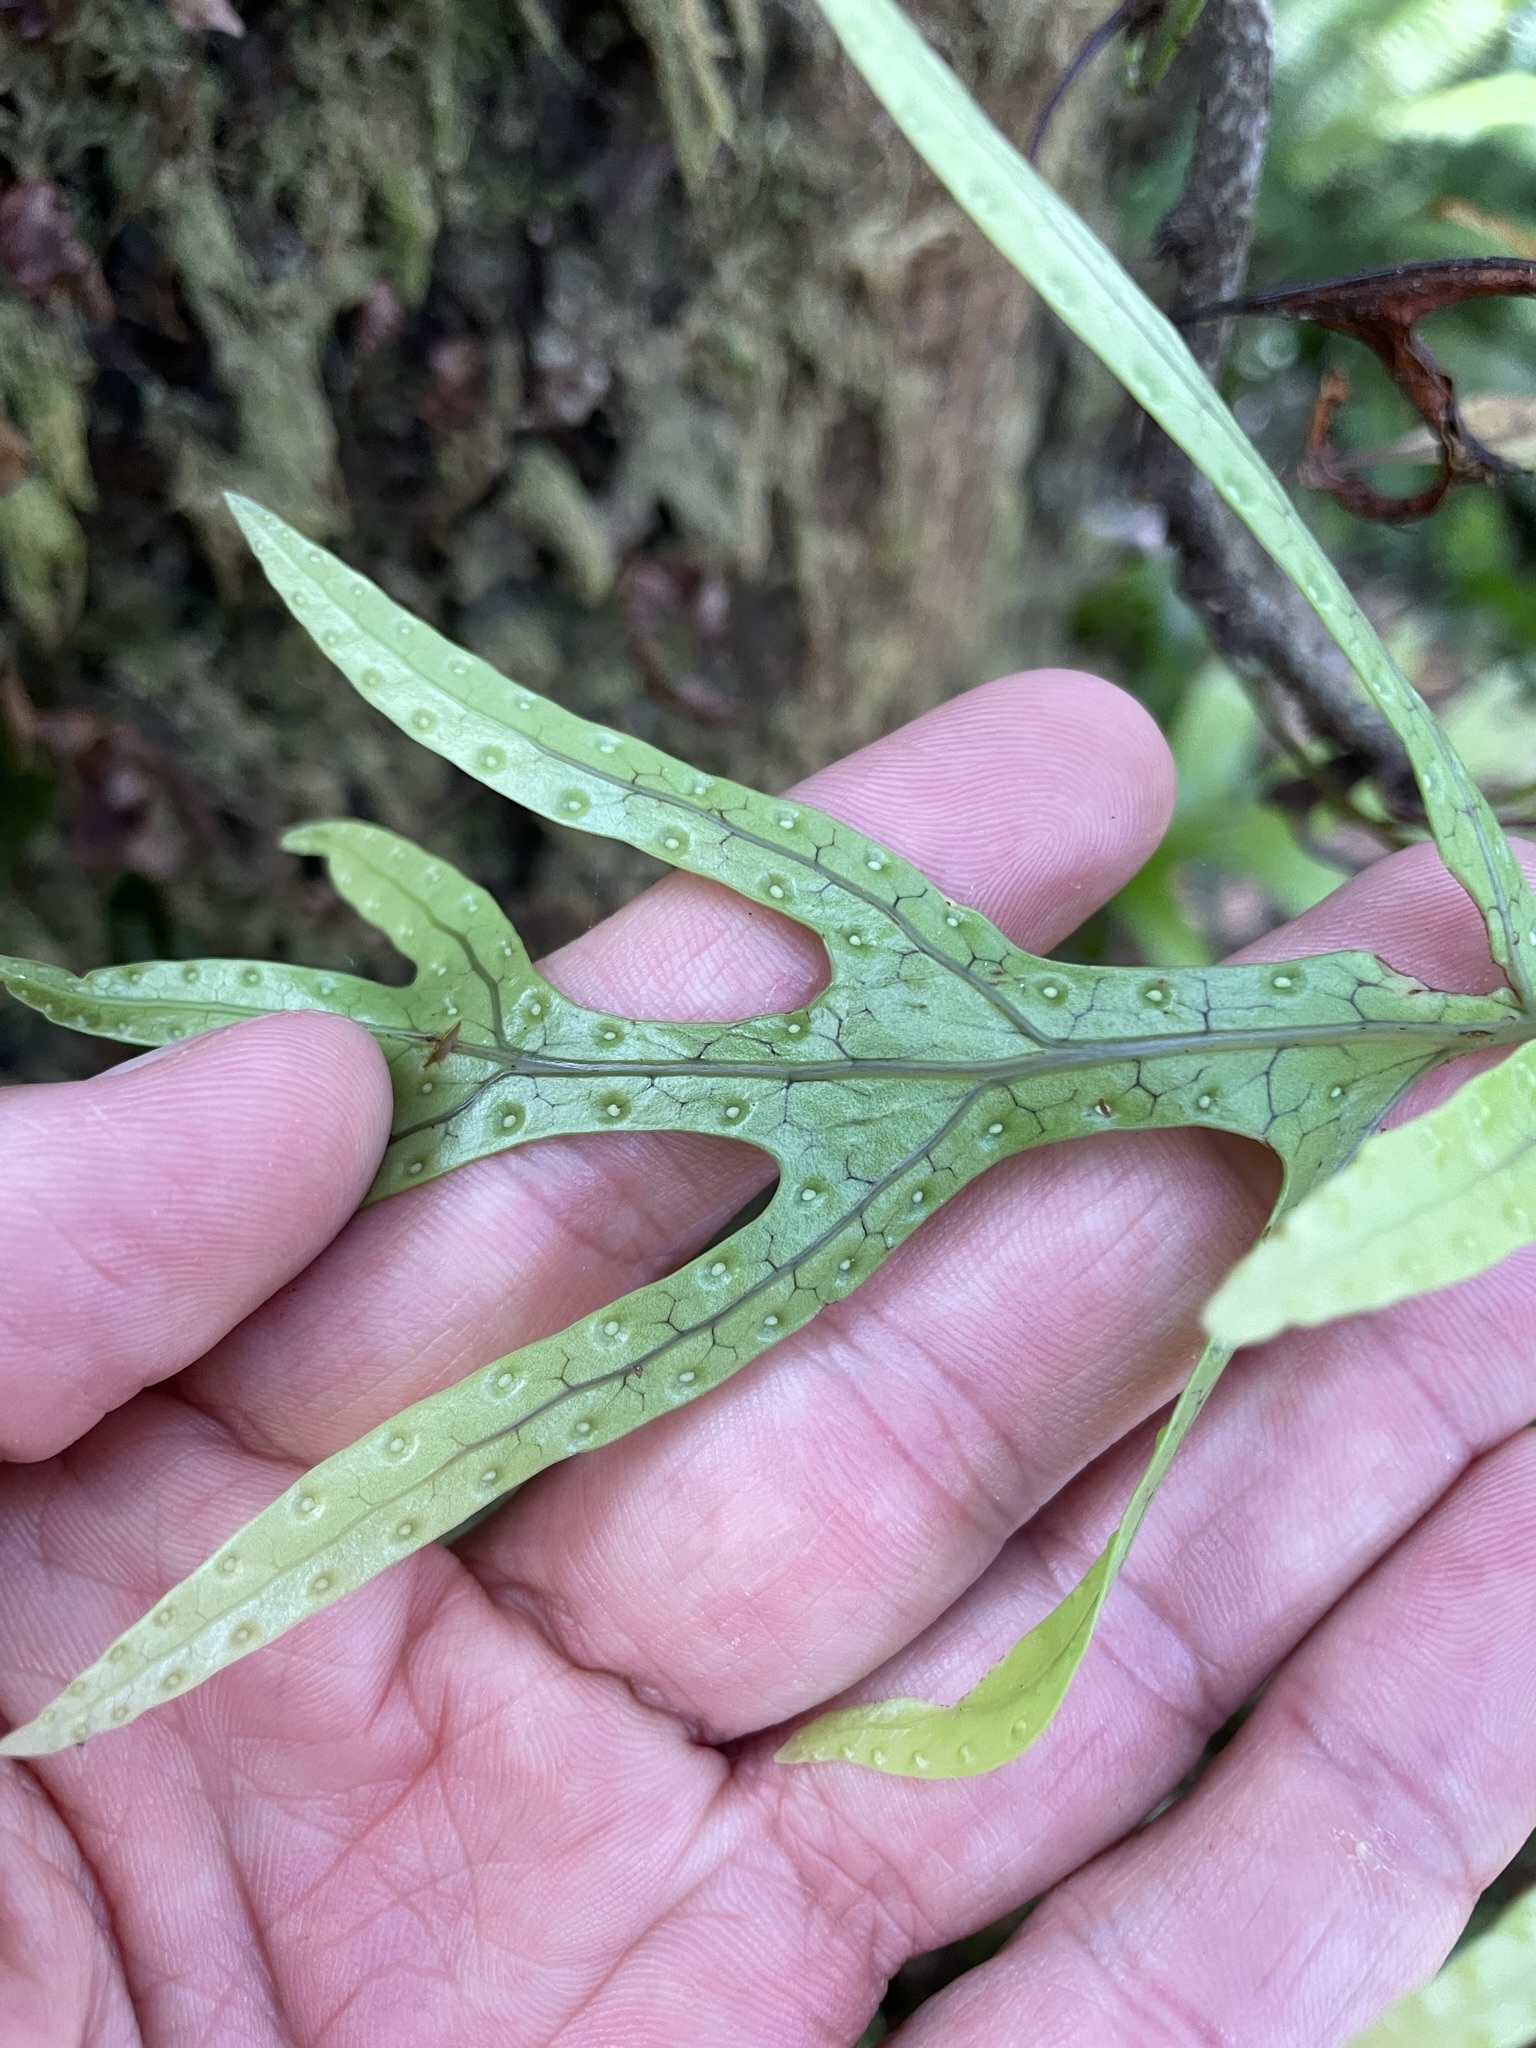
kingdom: Plantae
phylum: Tracheophyta
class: Polypodiopsida
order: Polypodiales
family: Polypodiaceae
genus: Lecanopteris
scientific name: Lecanopteris pustulata
